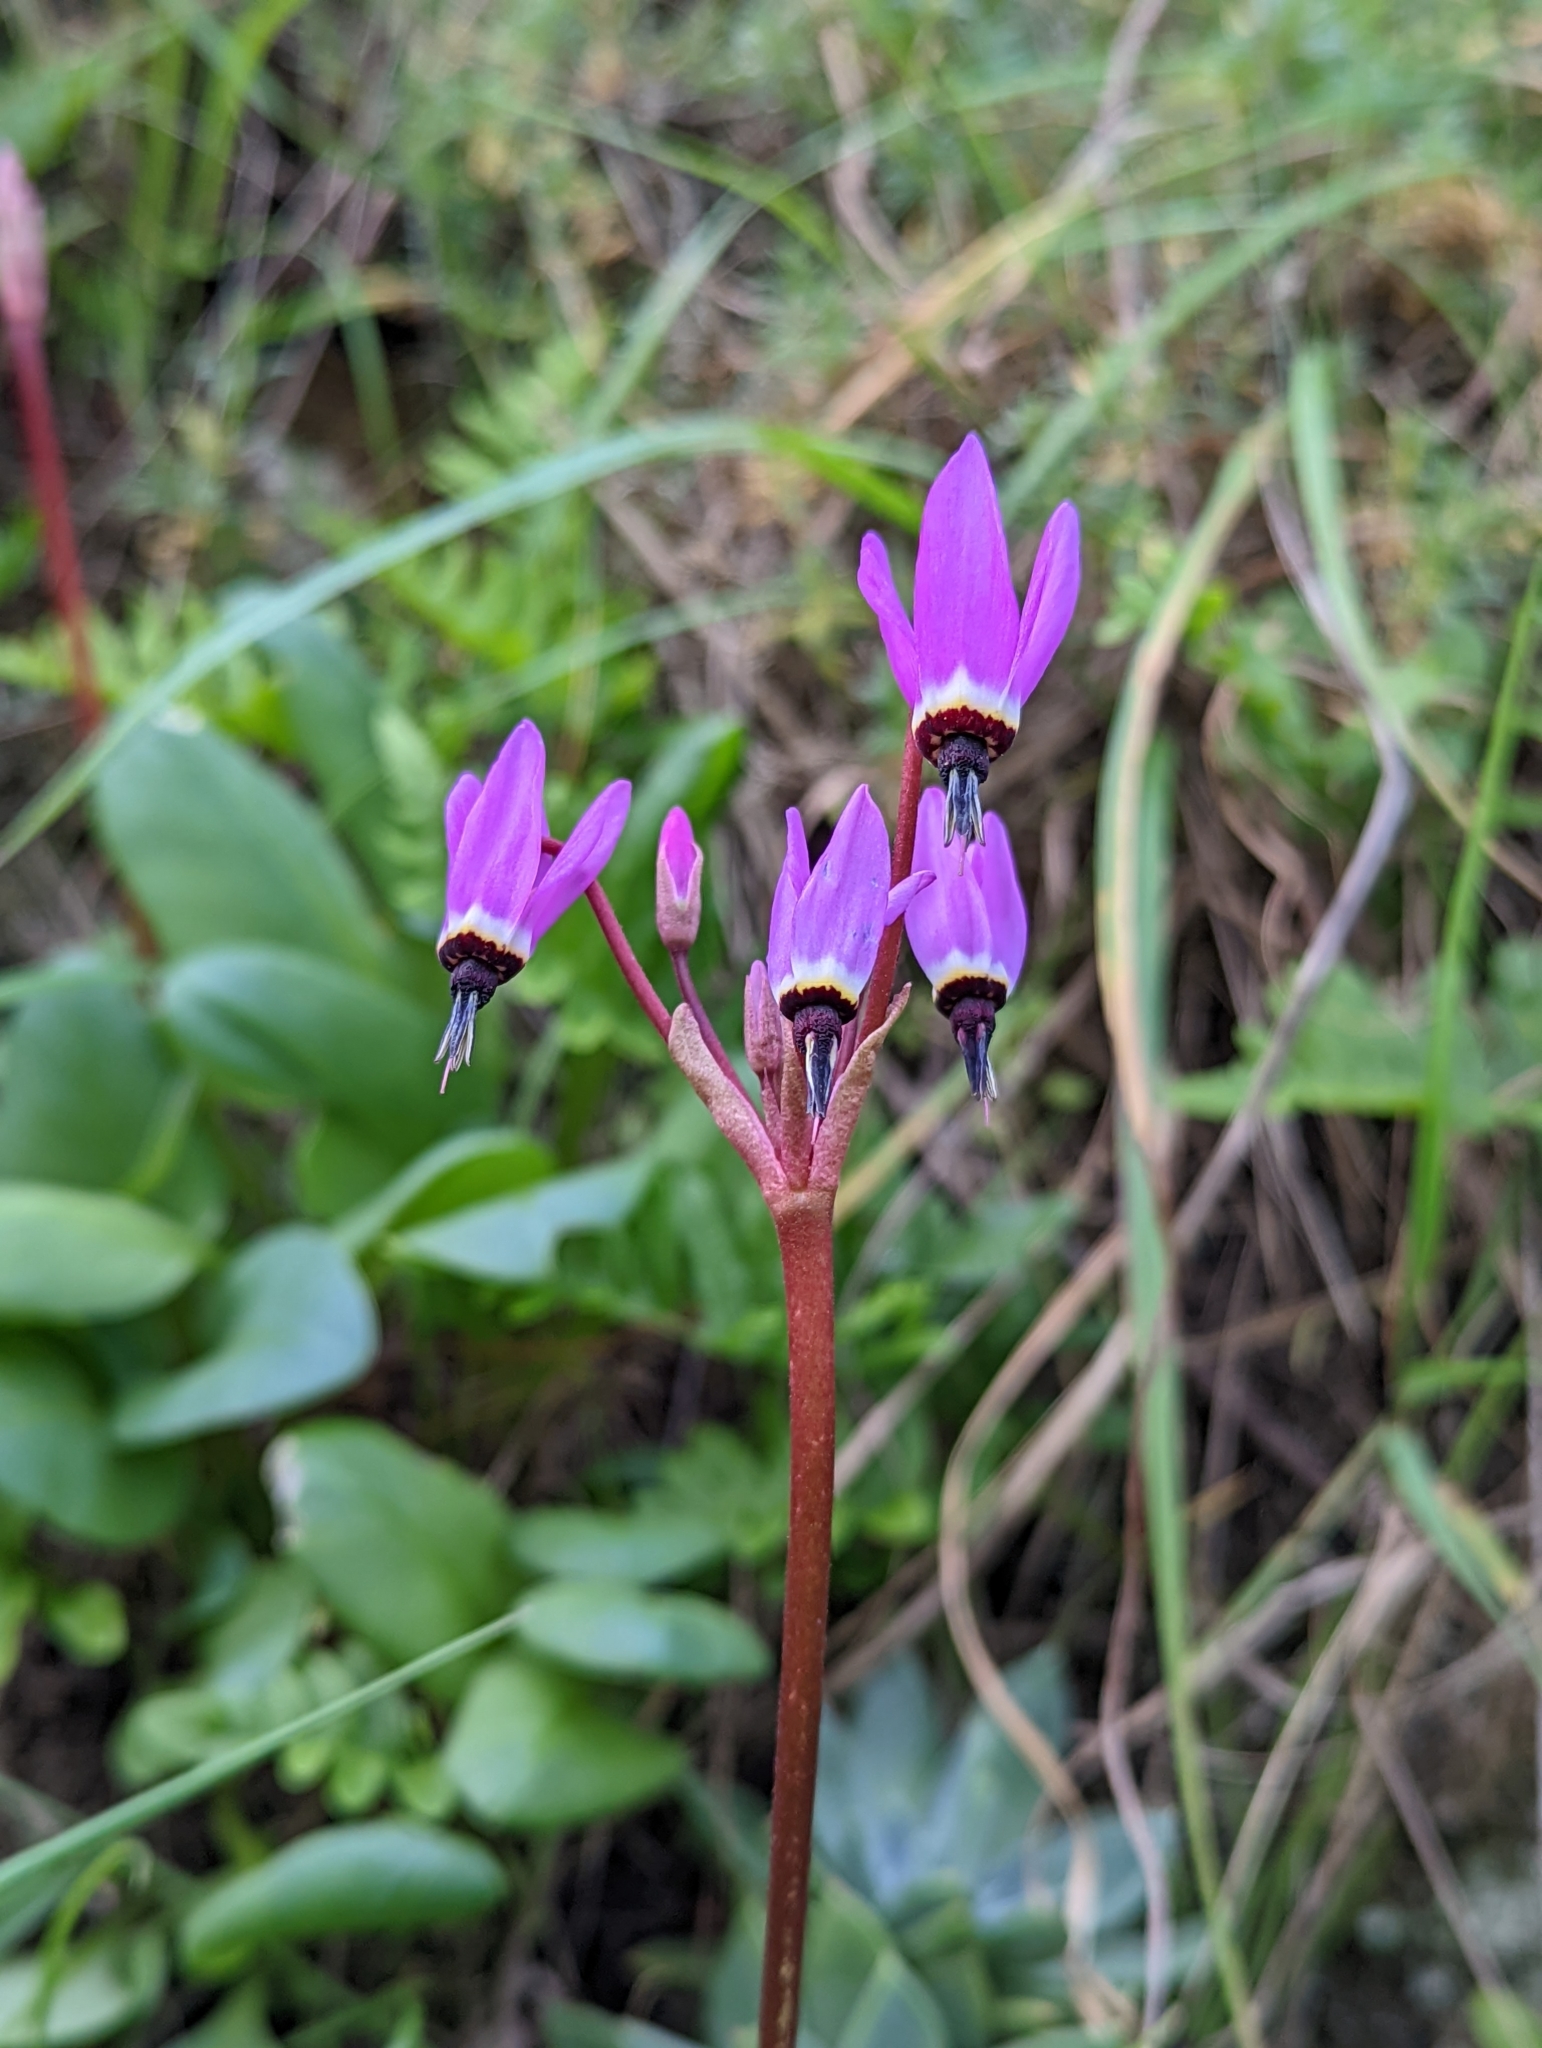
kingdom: Plantae
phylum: Tracheophyta
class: Magnoliopsida
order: Ericales
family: Primulaceae
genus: Dodecatheon
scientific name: Dodecatheon hendersonii
